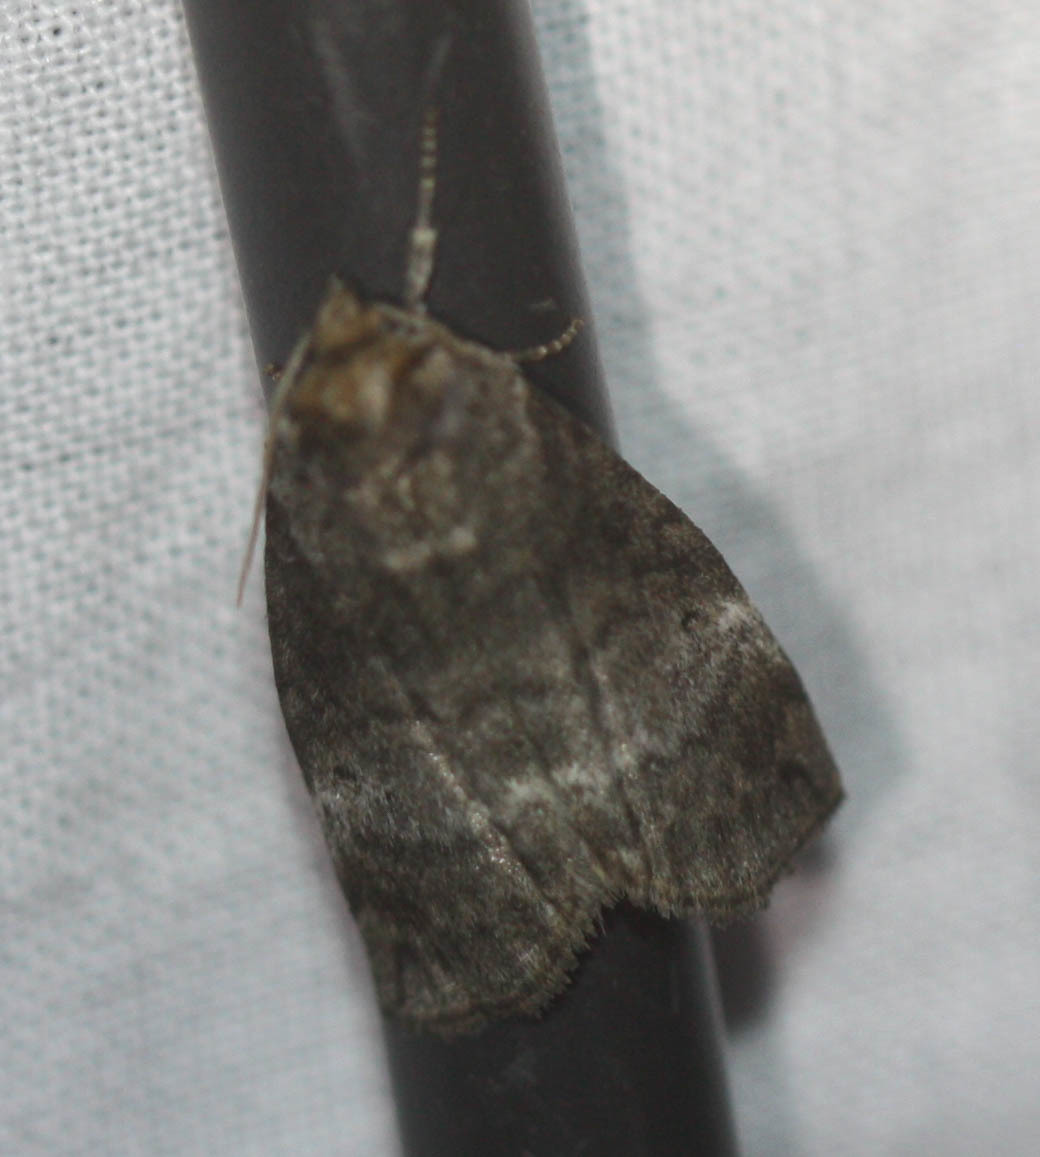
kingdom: Animalia
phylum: Arthropoda
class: Insecta
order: Lepidoptera
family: Drepanidae
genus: Ochropacha
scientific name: Ochropacha duplaris
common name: Common lutestring
